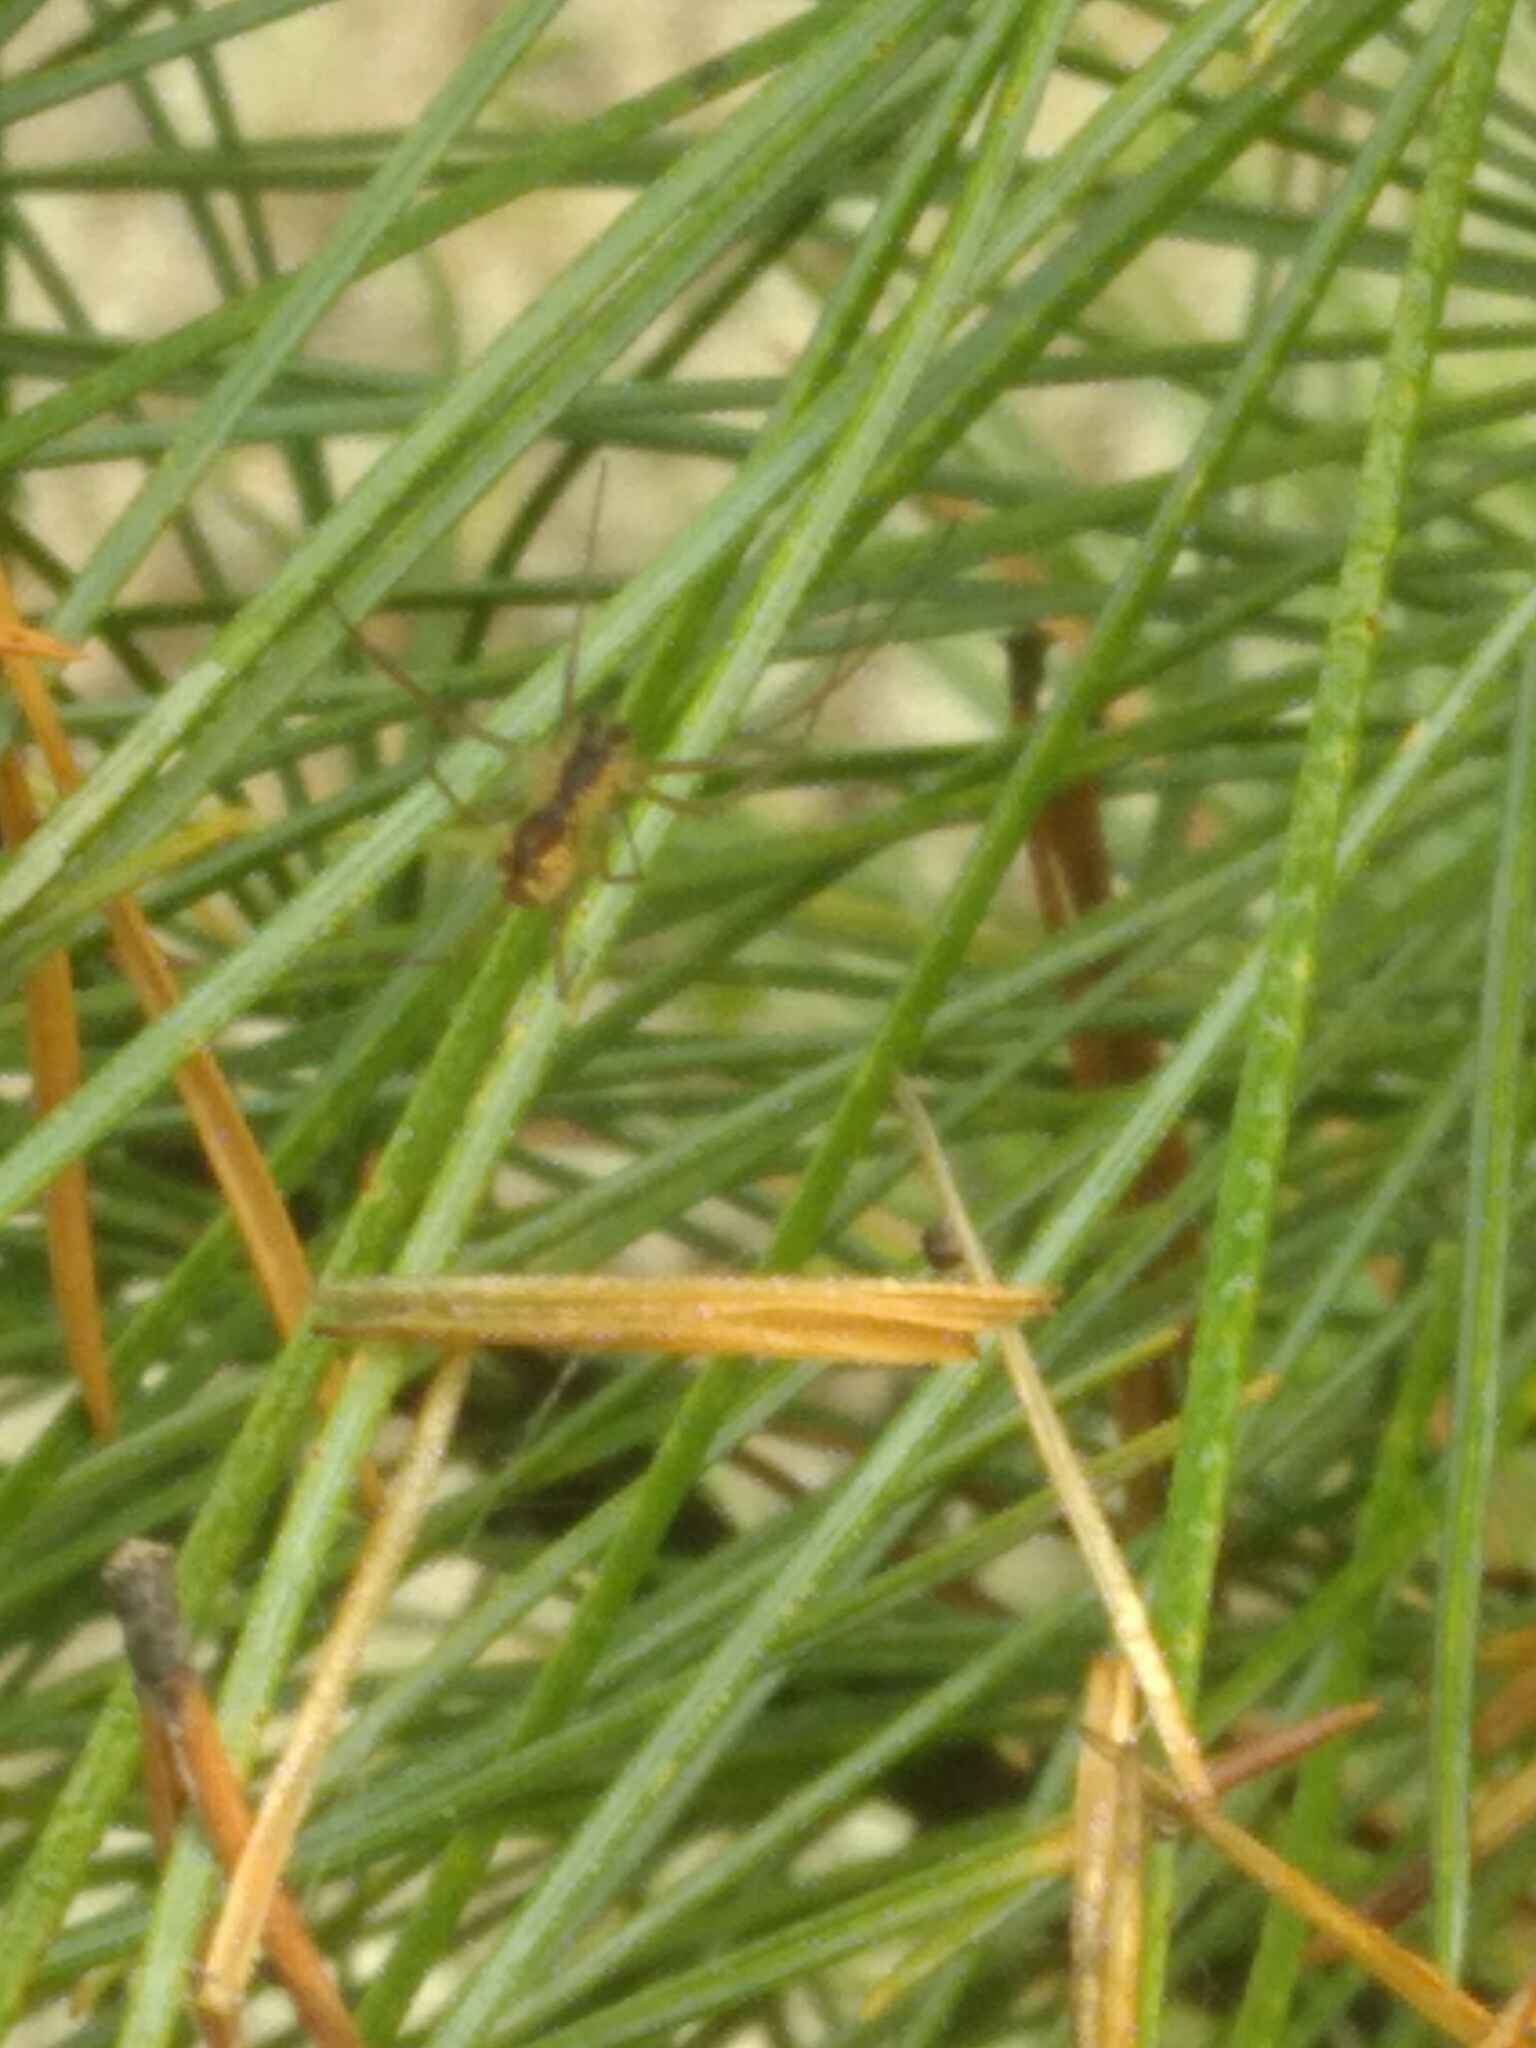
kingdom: Animalia
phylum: Arthropoda
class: Arachnida
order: Araneae
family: Linyphiidae
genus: Neriene
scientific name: Neriene radiata
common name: Filmy dome spider
